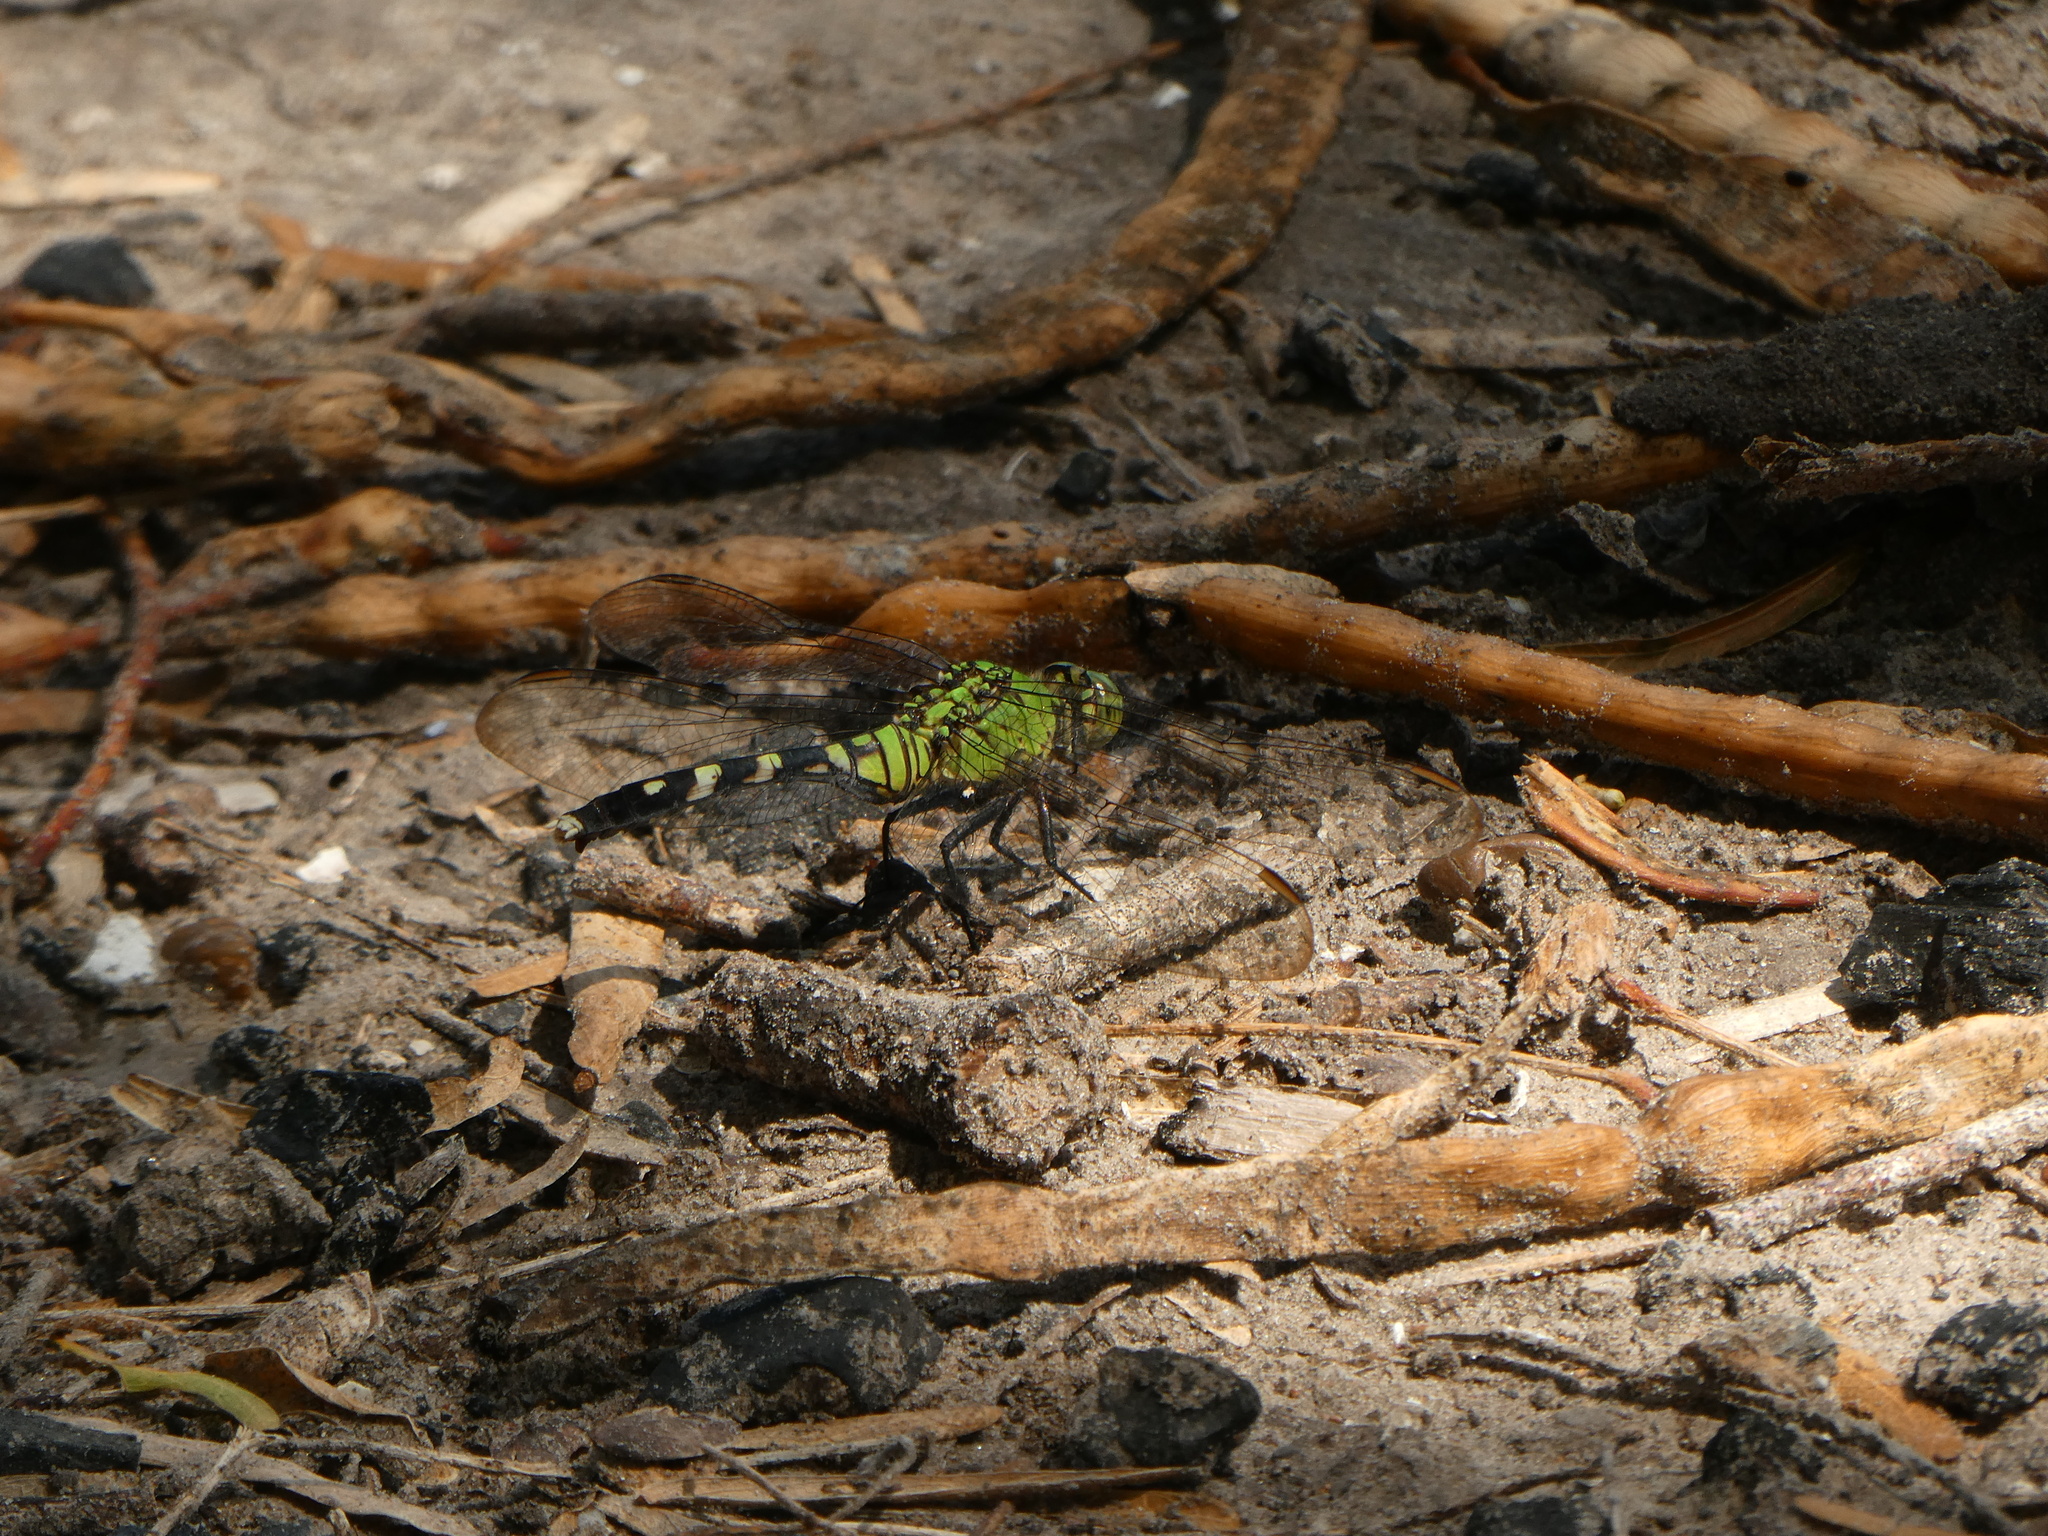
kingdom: Animalia
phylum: Arthropoda
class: Insecta
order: Odonata
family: Libellulidae
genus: Erythemis
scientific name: Erythemis simplicicollis
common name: Eastern pondhawk
